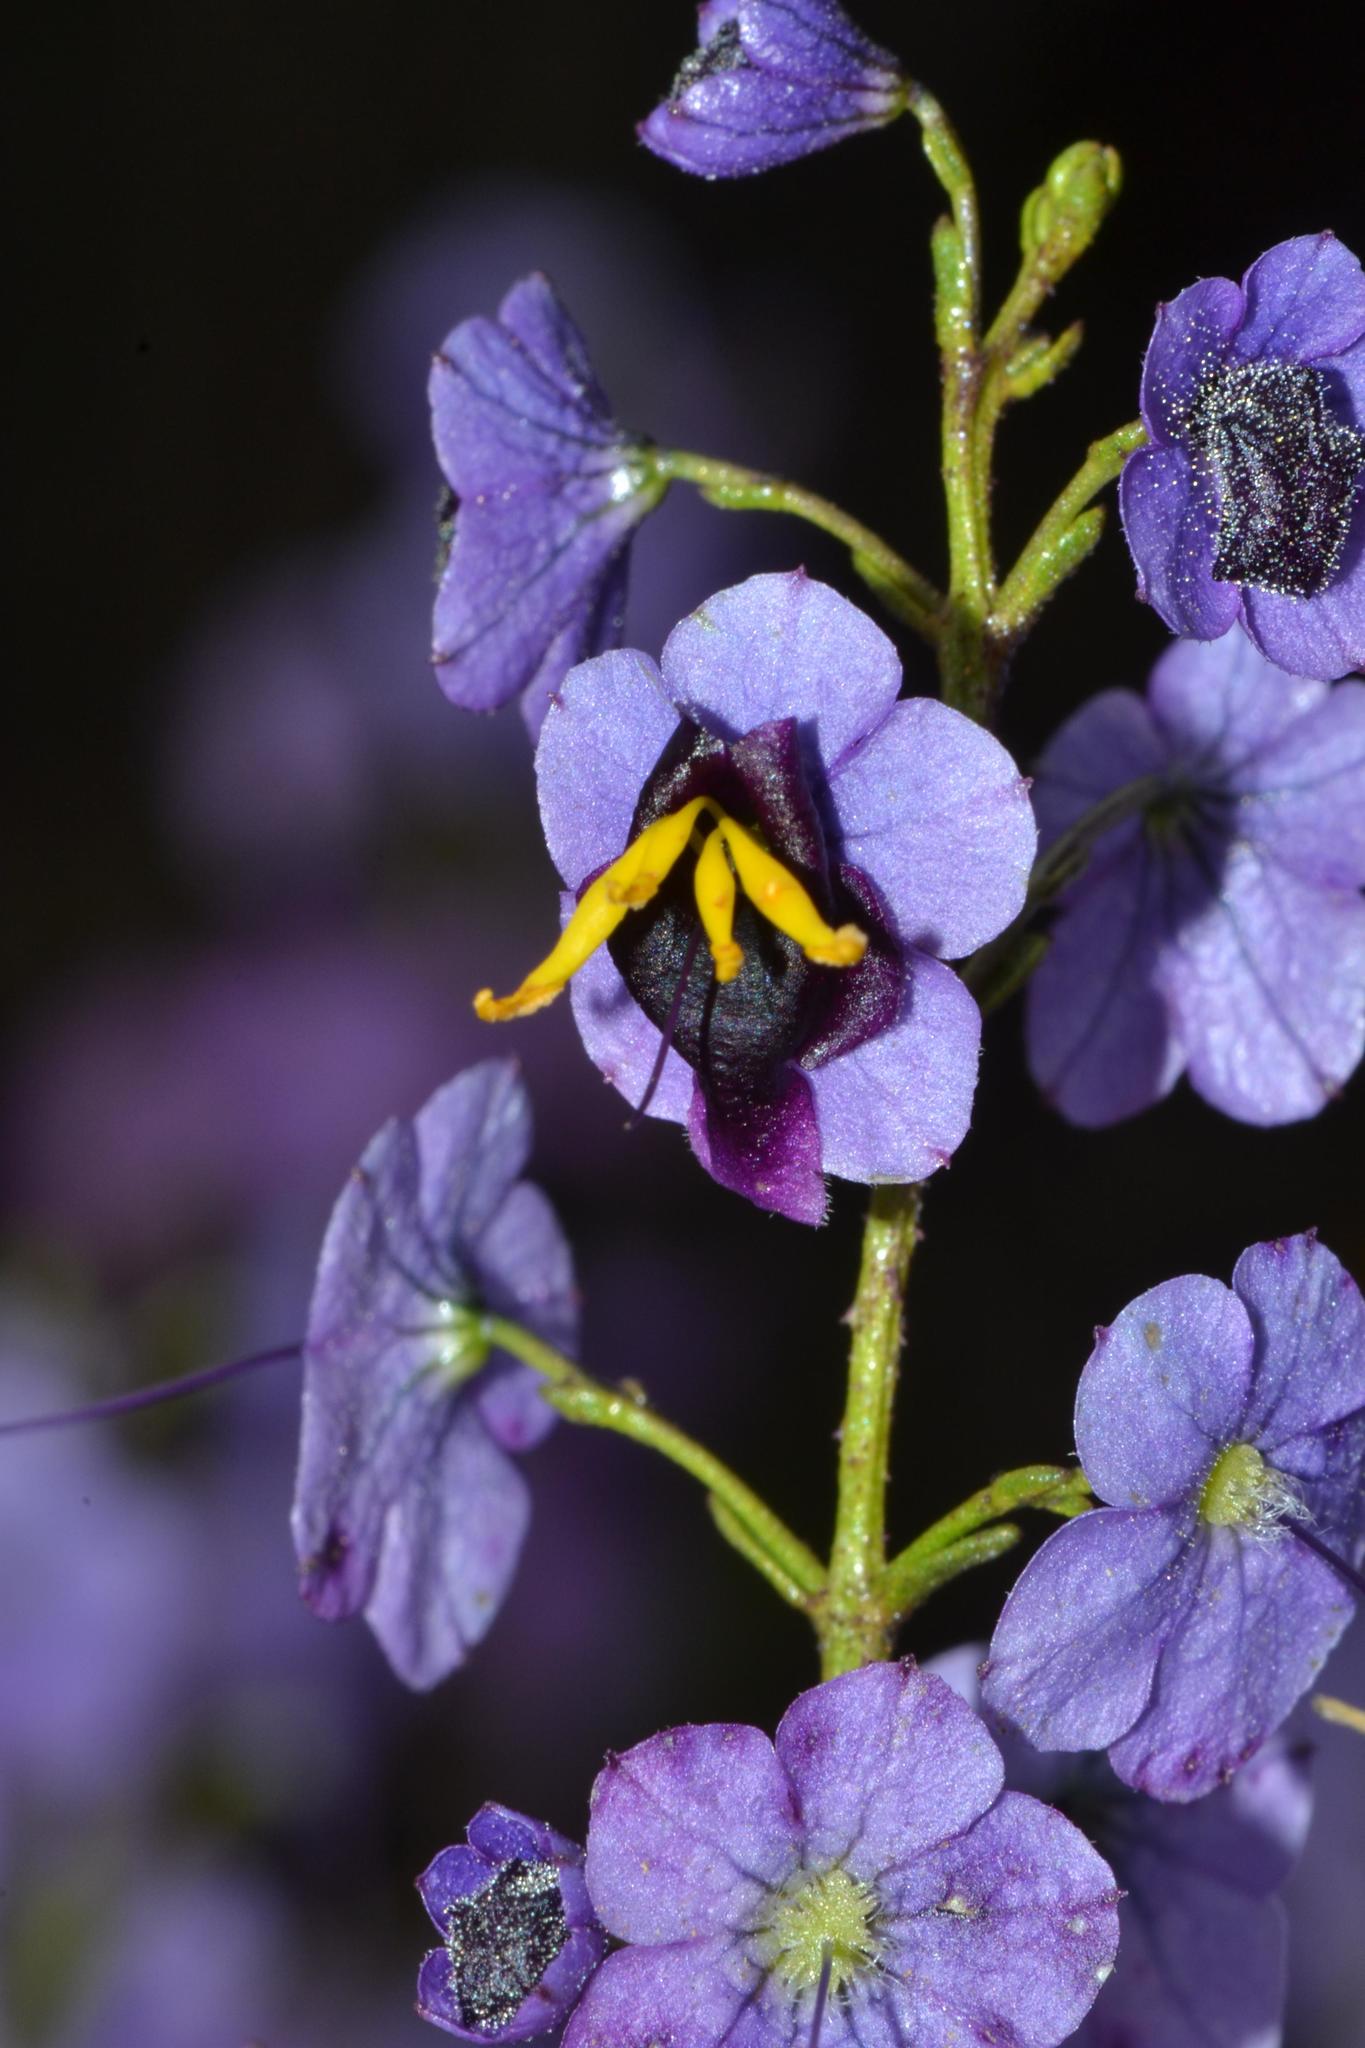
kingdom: Plantae
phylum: Tracheophyta
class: Magnoliopsida
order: Lamiales
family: Lamiaceae
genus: Cyanostegia
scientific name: Cyanostegia microphylla
